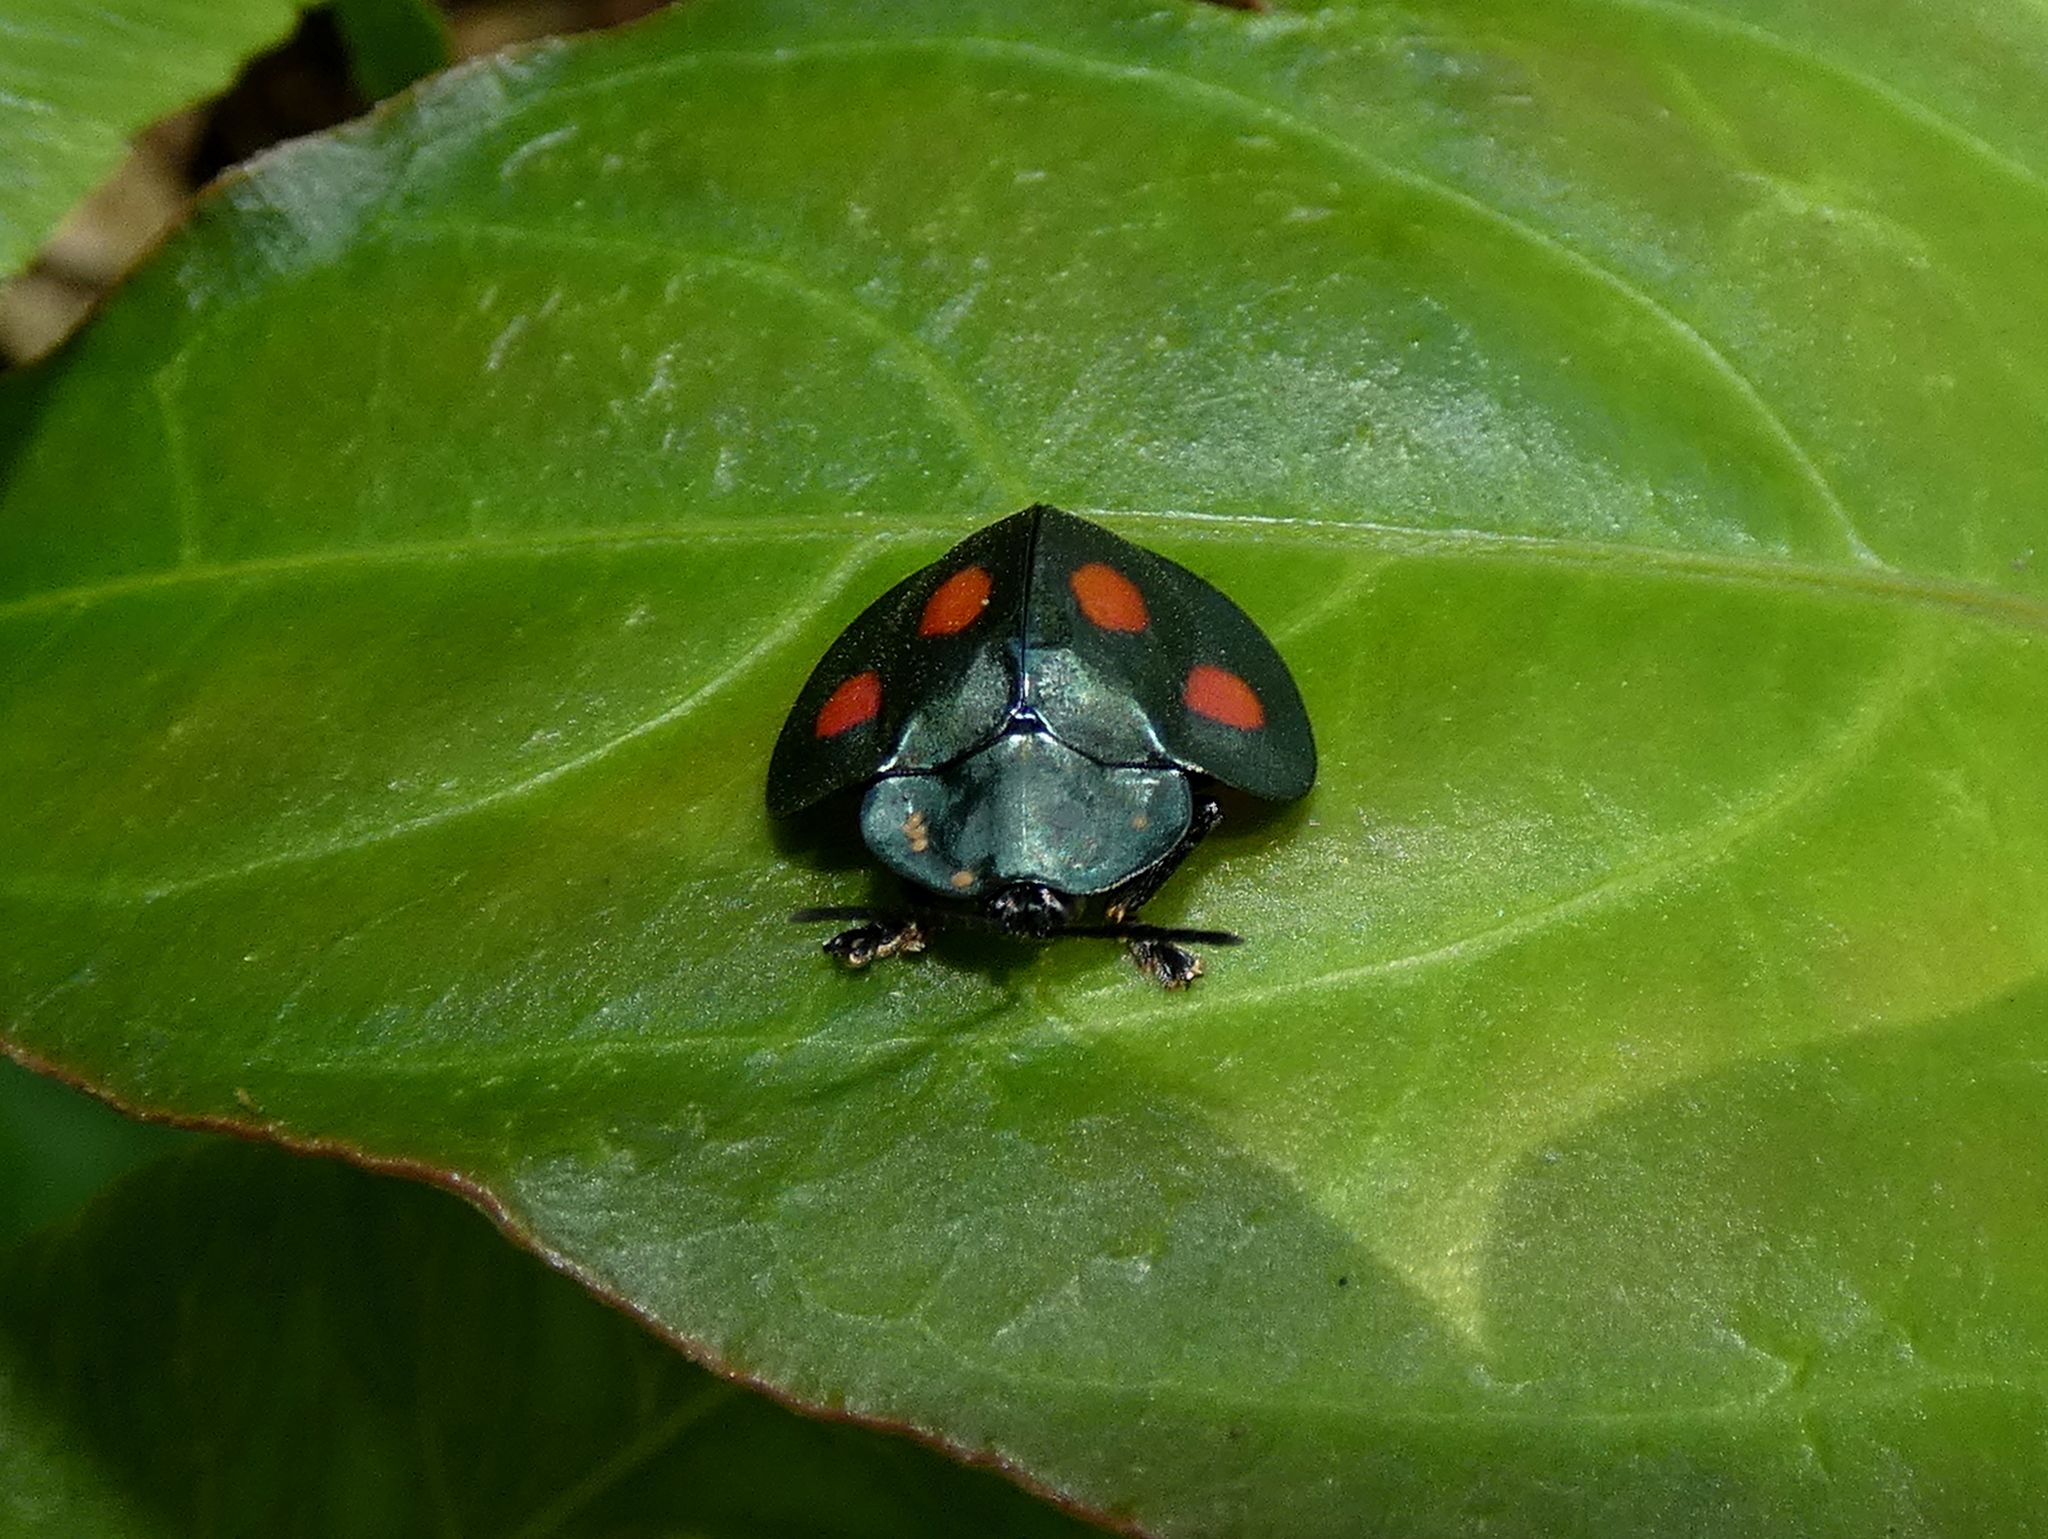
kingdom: Animalia
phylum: Arthropoda
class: Insecta
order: Coleoptera
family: Chrysomelidae
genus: Stolas
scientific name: Stolas lebasii
